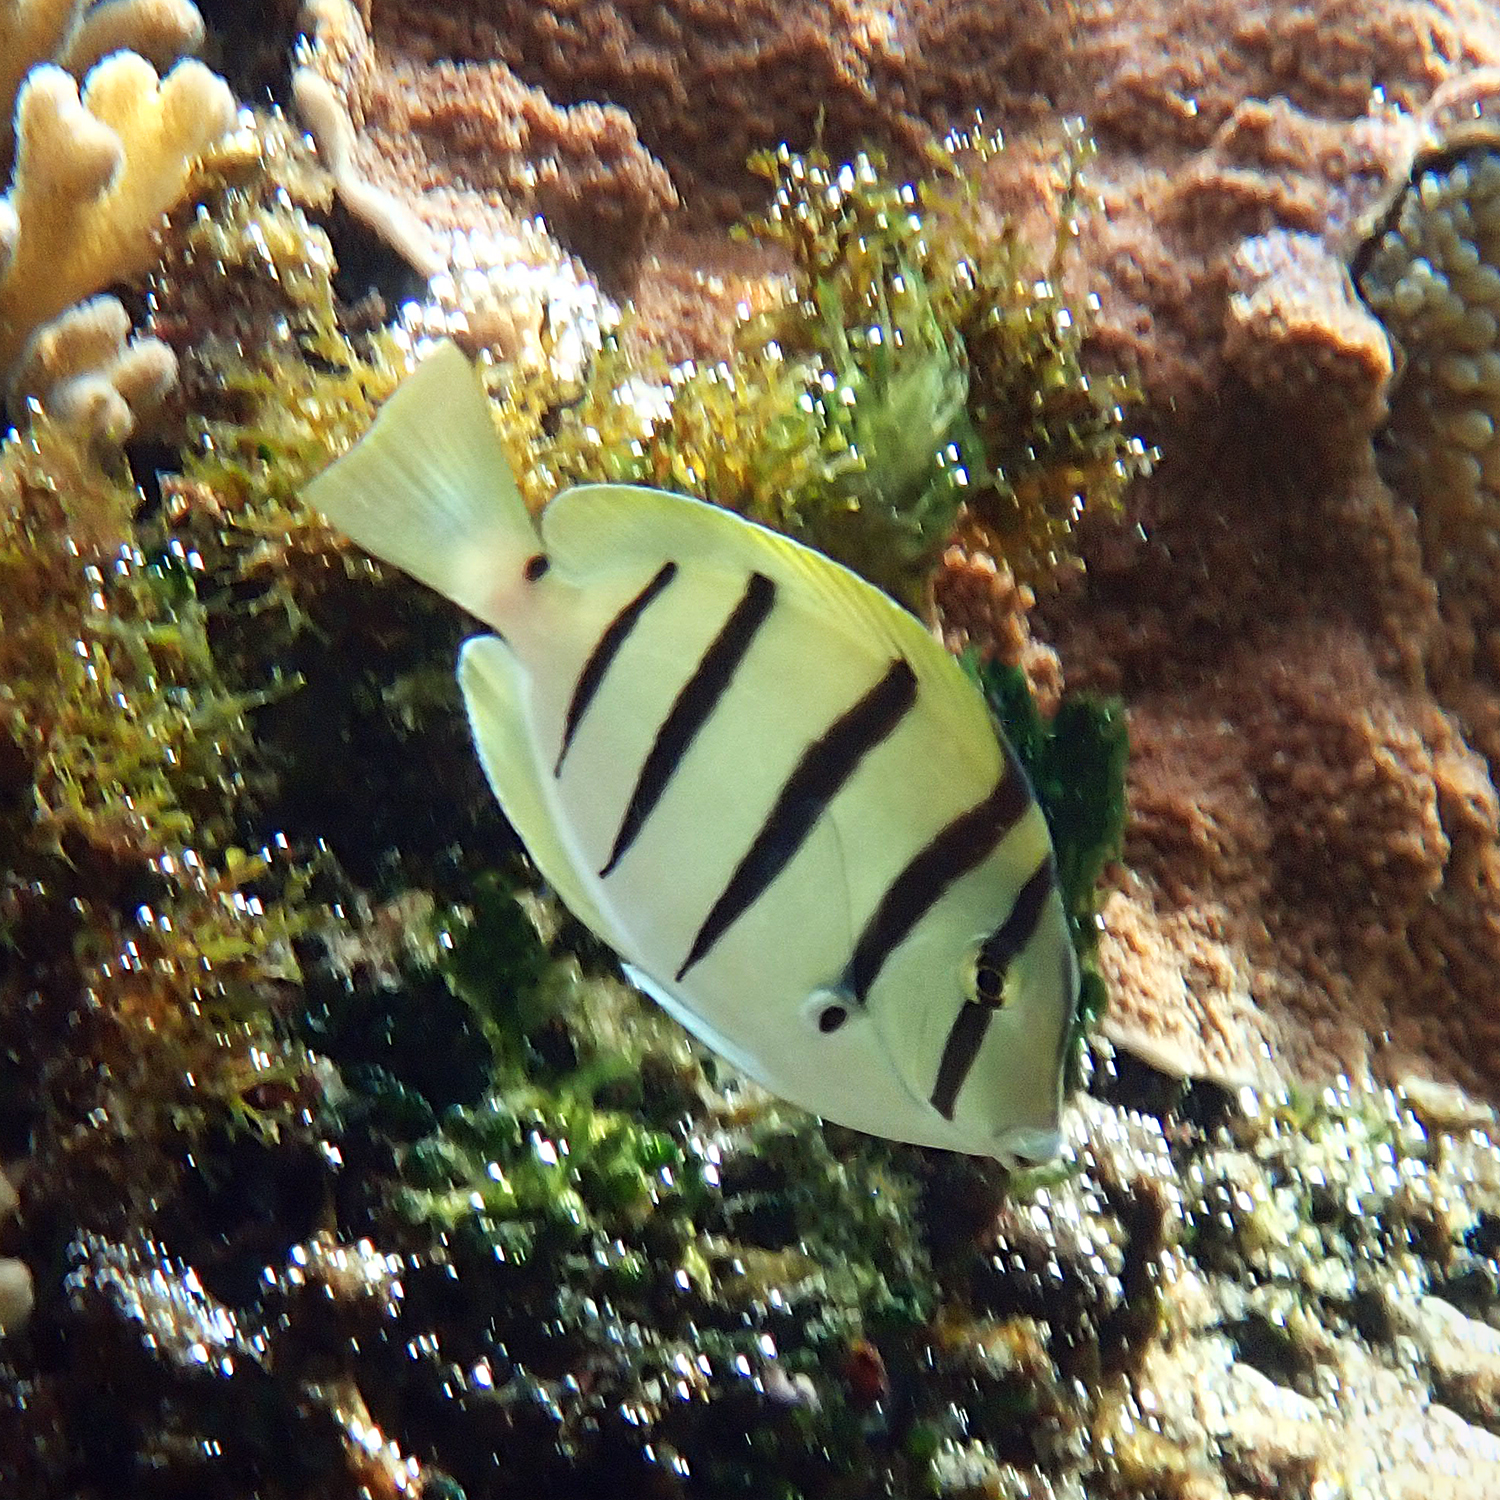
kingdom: Animalia
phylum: Chordata
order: Perciformes
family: Acanthuridae
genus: Acanthurus
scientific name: Acanthurus triostegus
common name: Convict surgeonfish
